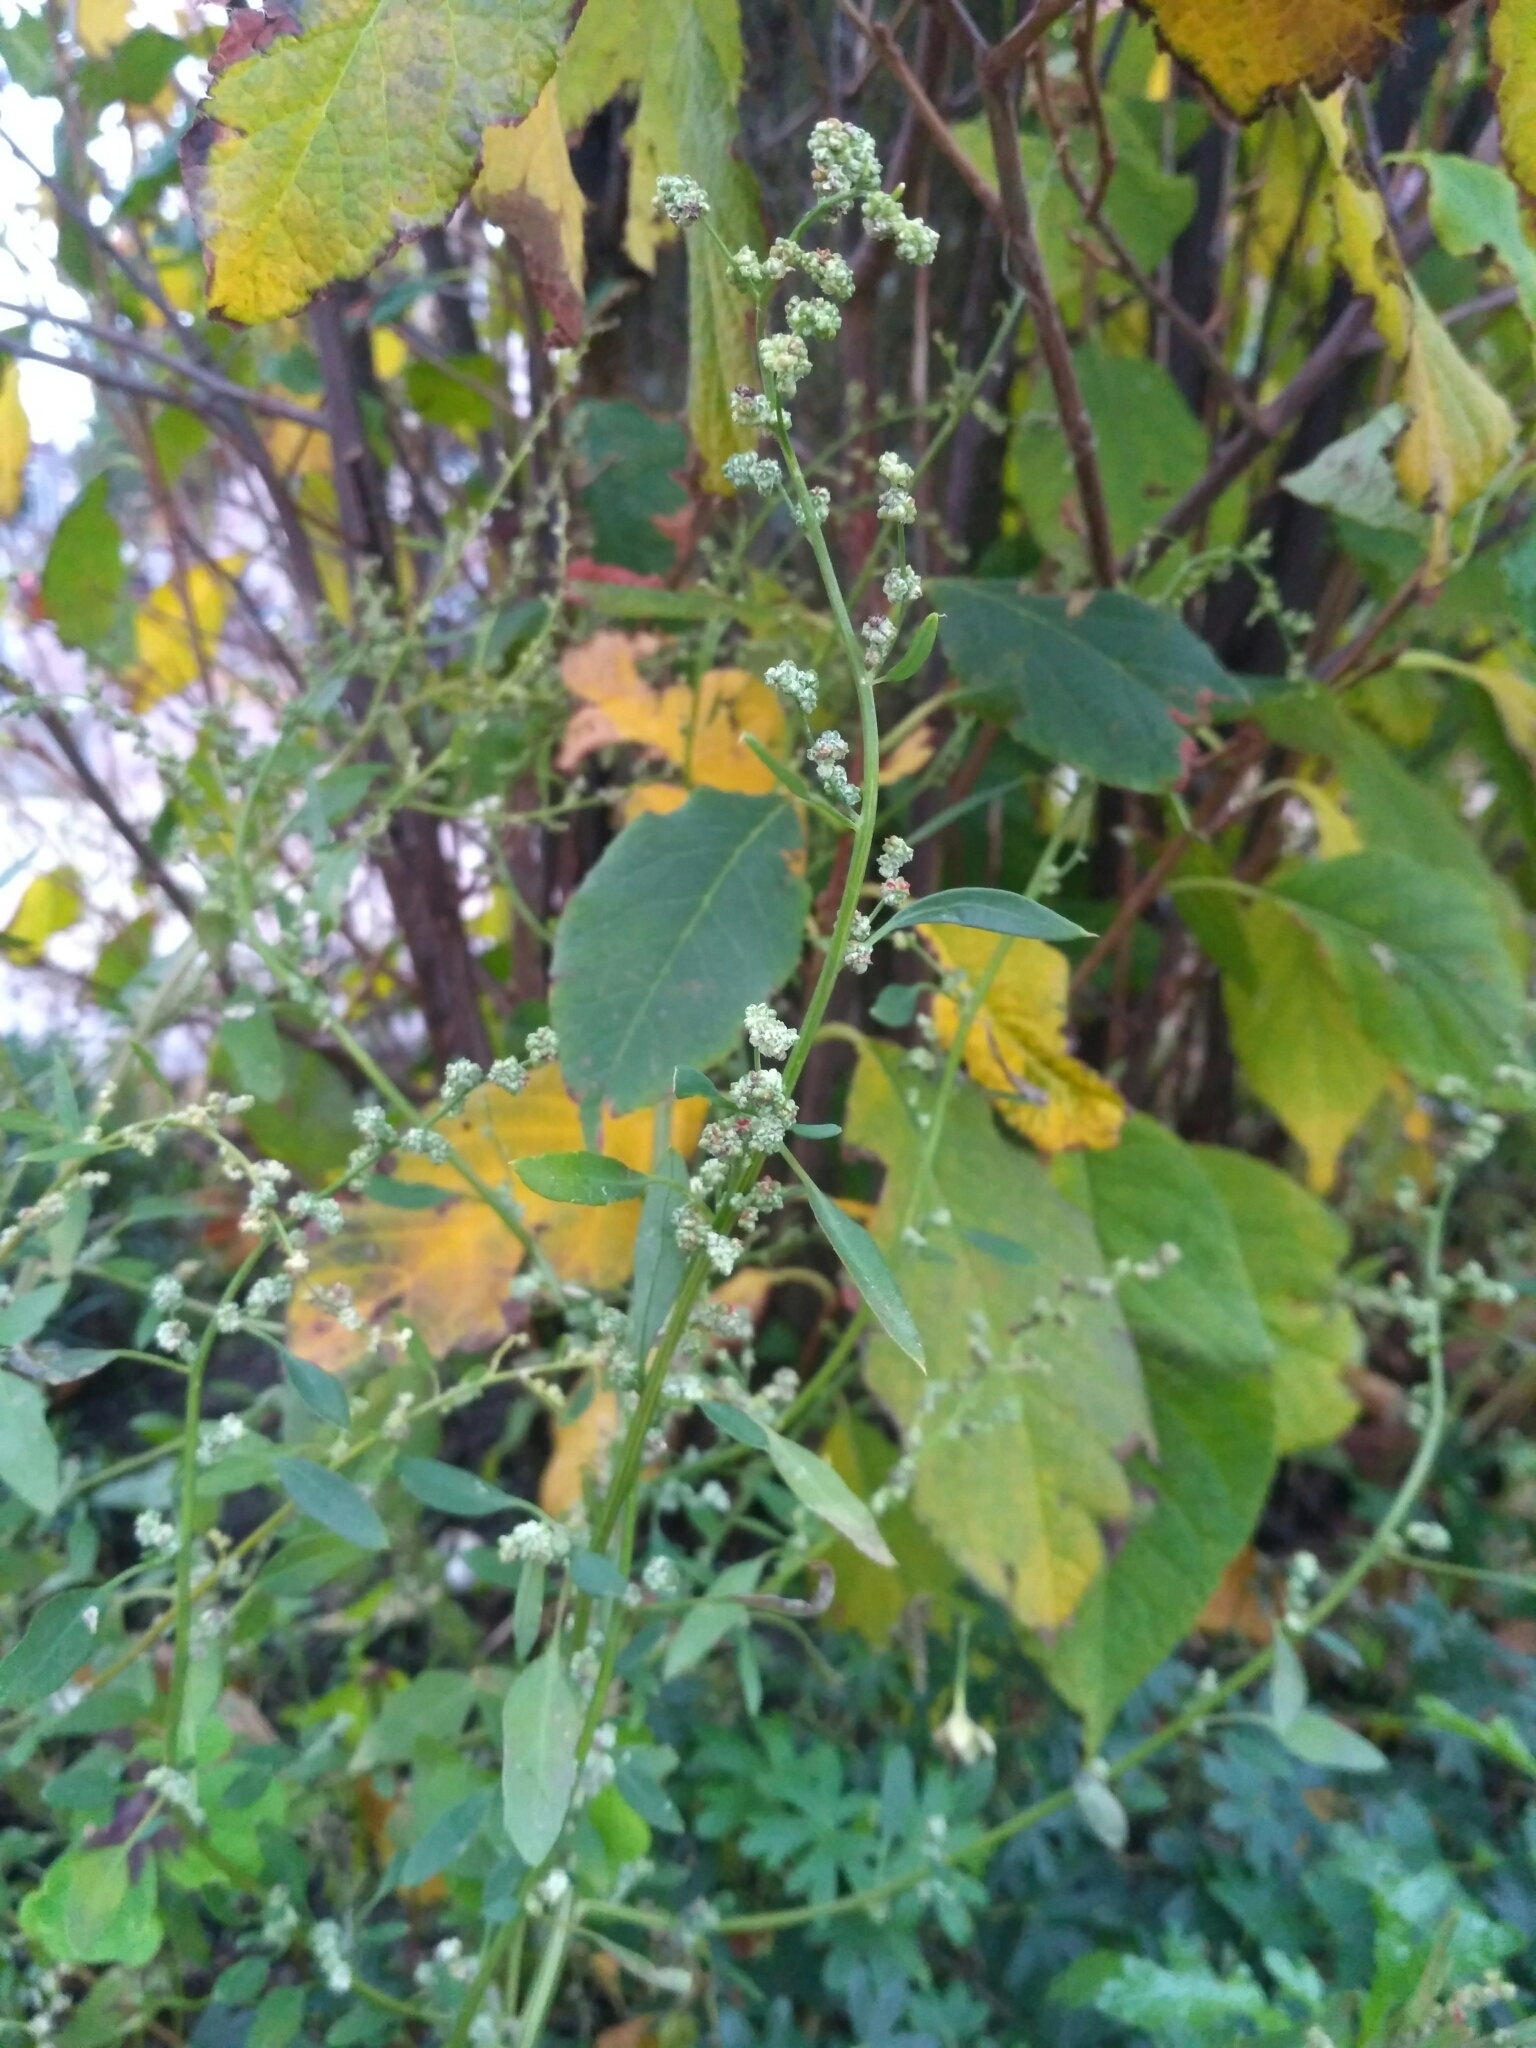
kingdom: Plantae
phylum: Tracheophyta
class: Magnoliopsida
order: Caryophyllales
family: Amaranthaceae
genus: Chenopodium
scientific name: Chenopodium album
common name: Fat-hen
